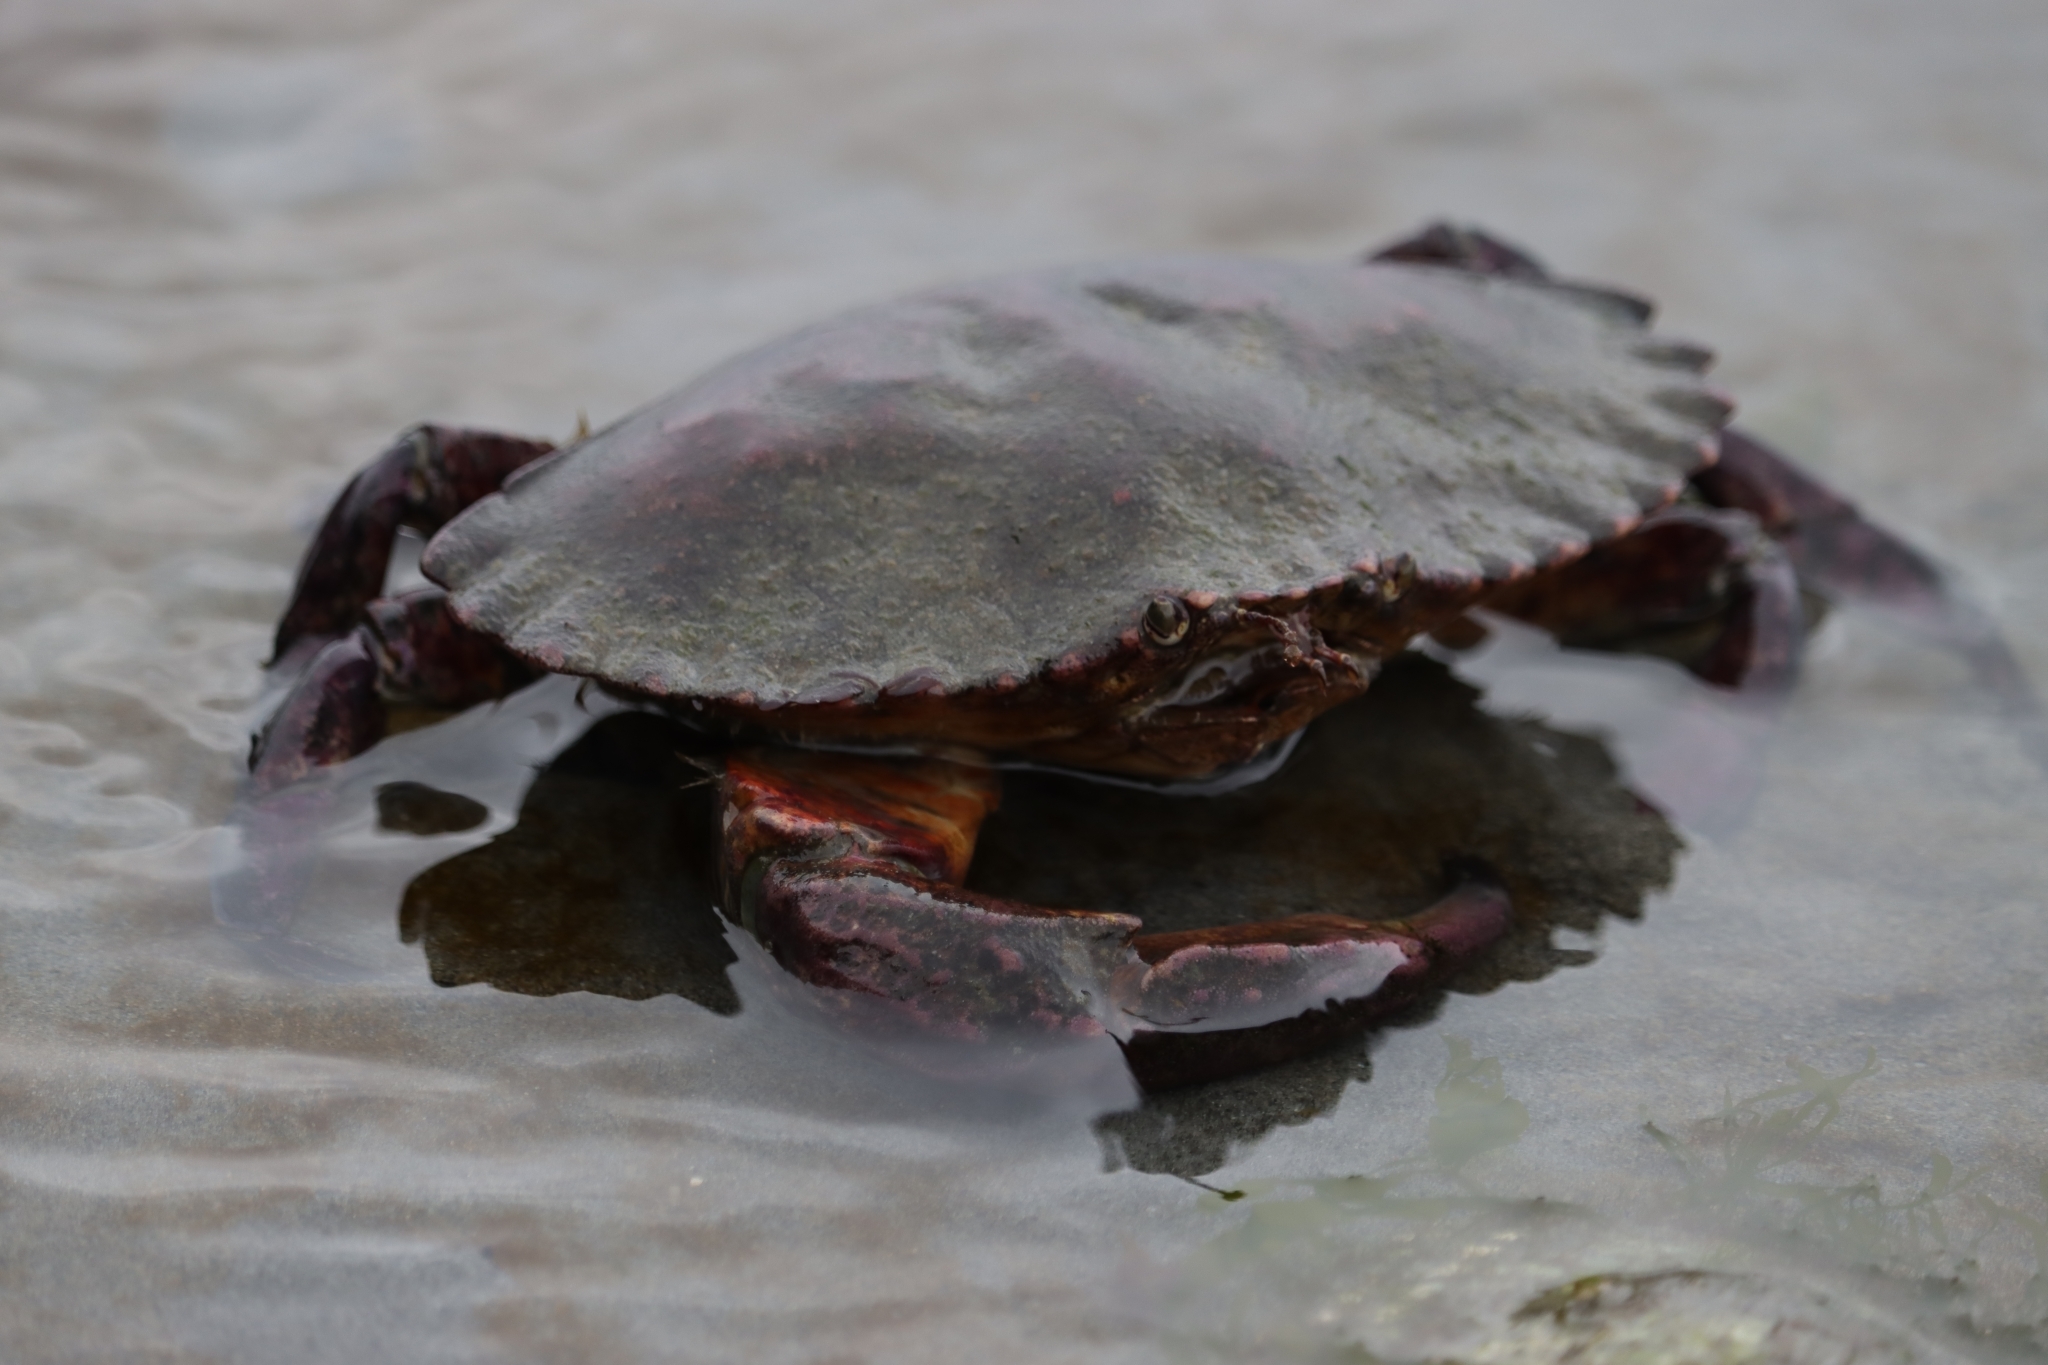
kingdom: Animalia
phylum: Arthropoda
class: Malacostraca
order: Decapoda
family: Cancridae
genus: Cancer
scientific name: Cancer productus
